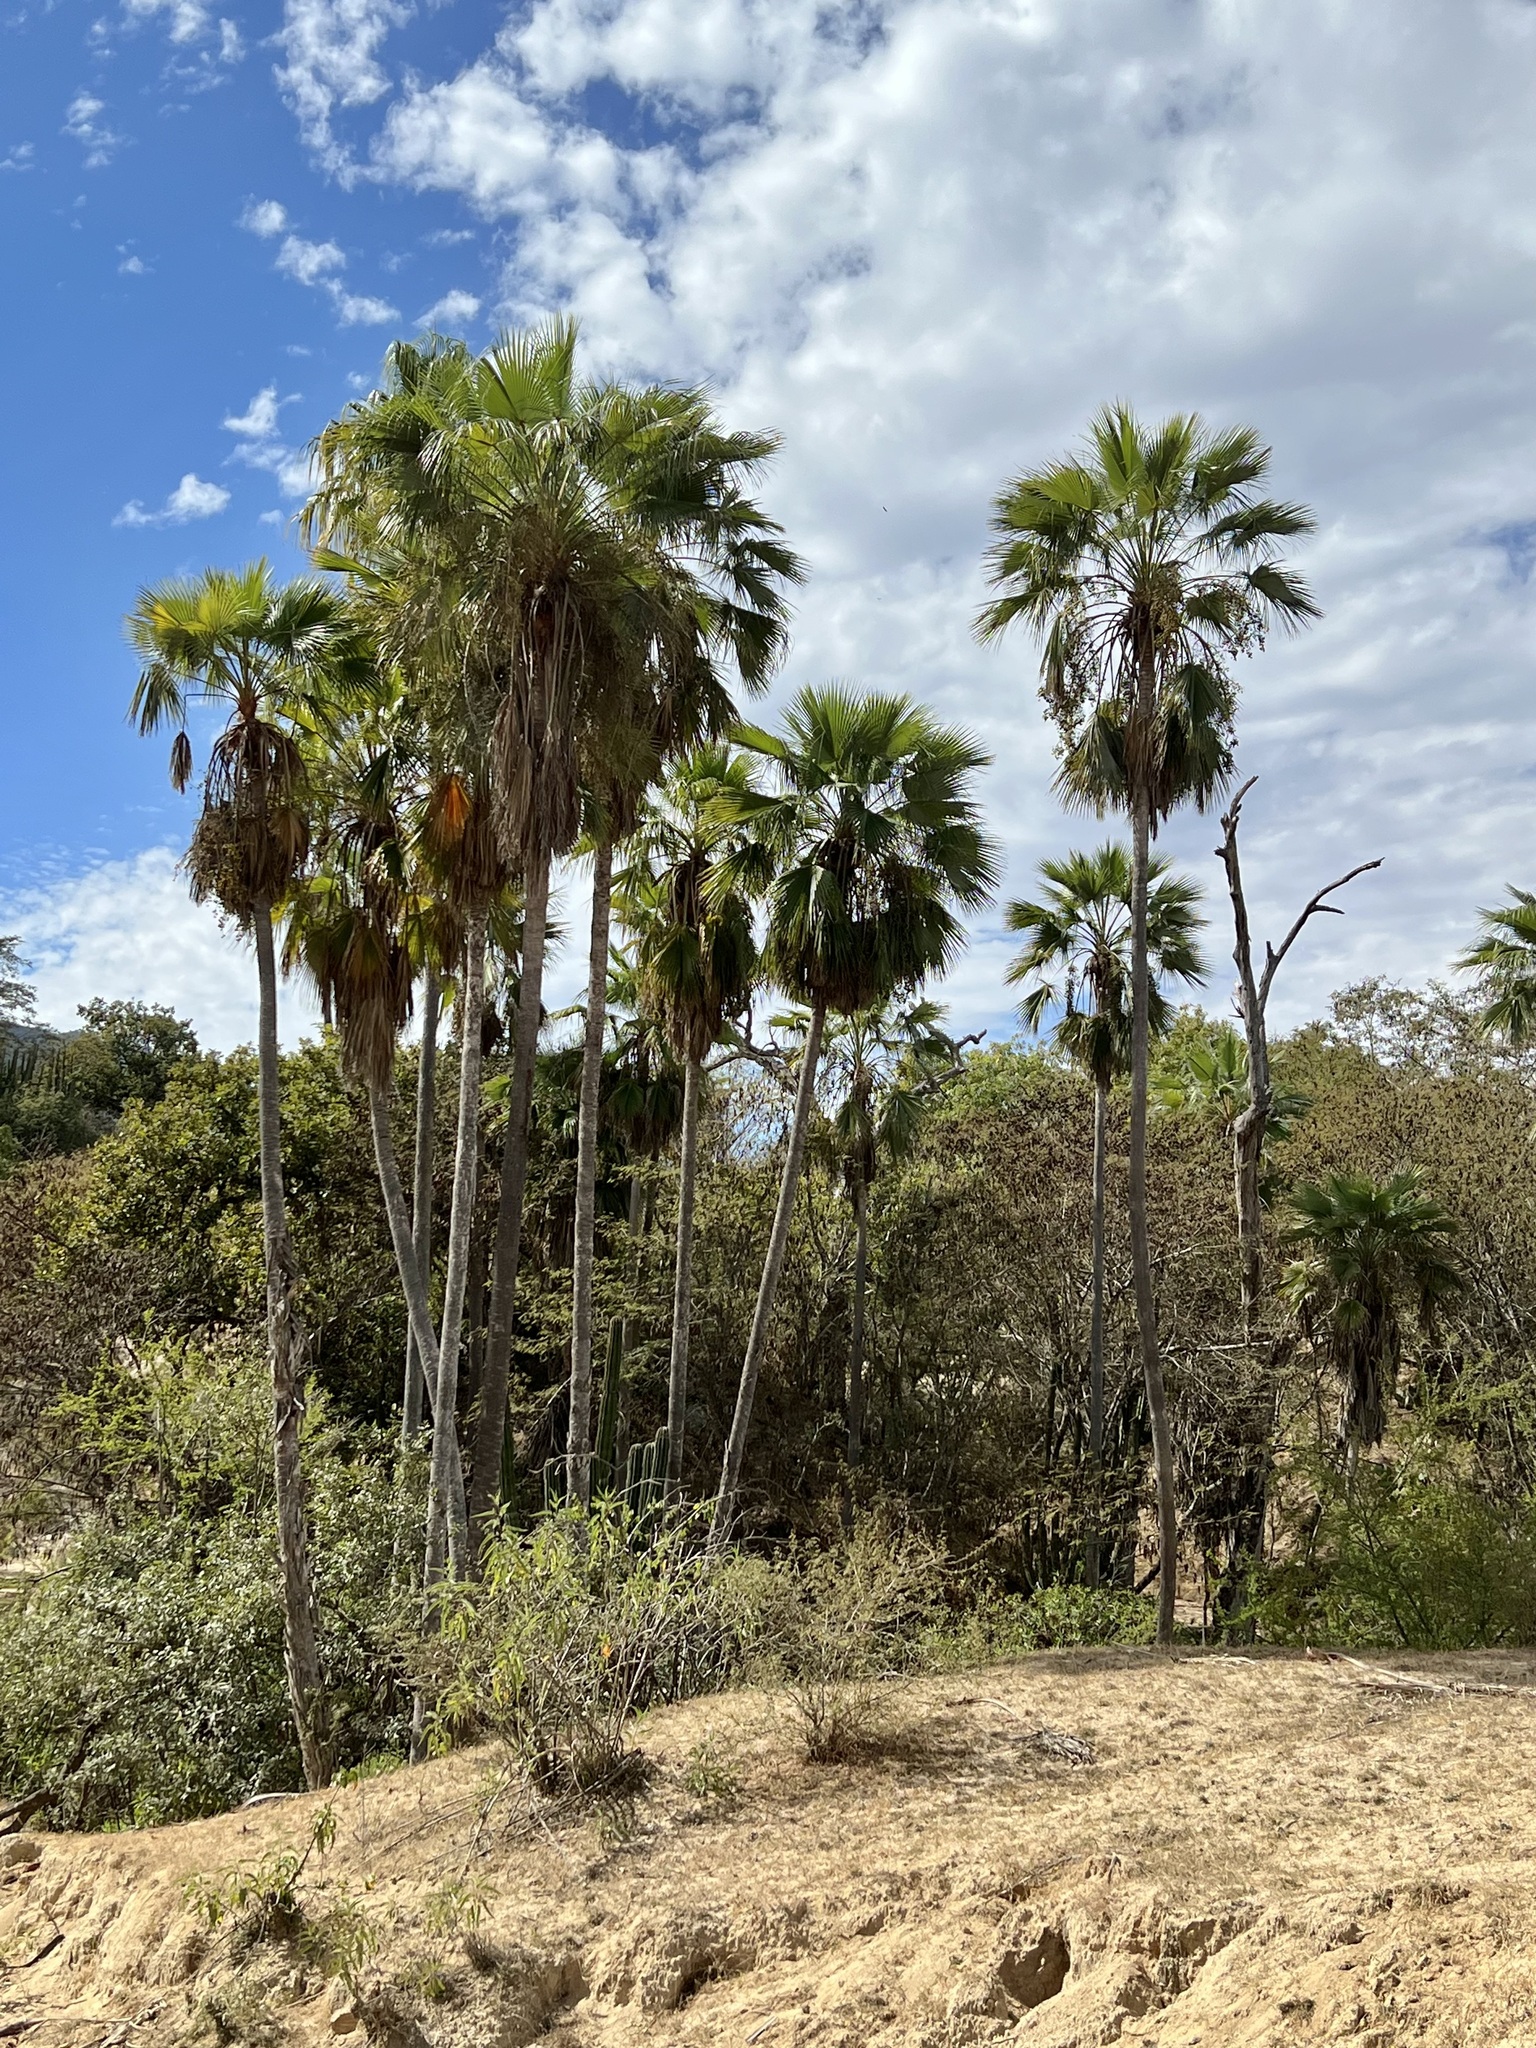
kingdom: Plantae
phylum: Tracheophyta
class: Liliopsida
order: Arecales
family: Arecaceae
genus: Brahea
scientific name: Brahea brandegeei
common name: San jose hesper palm
